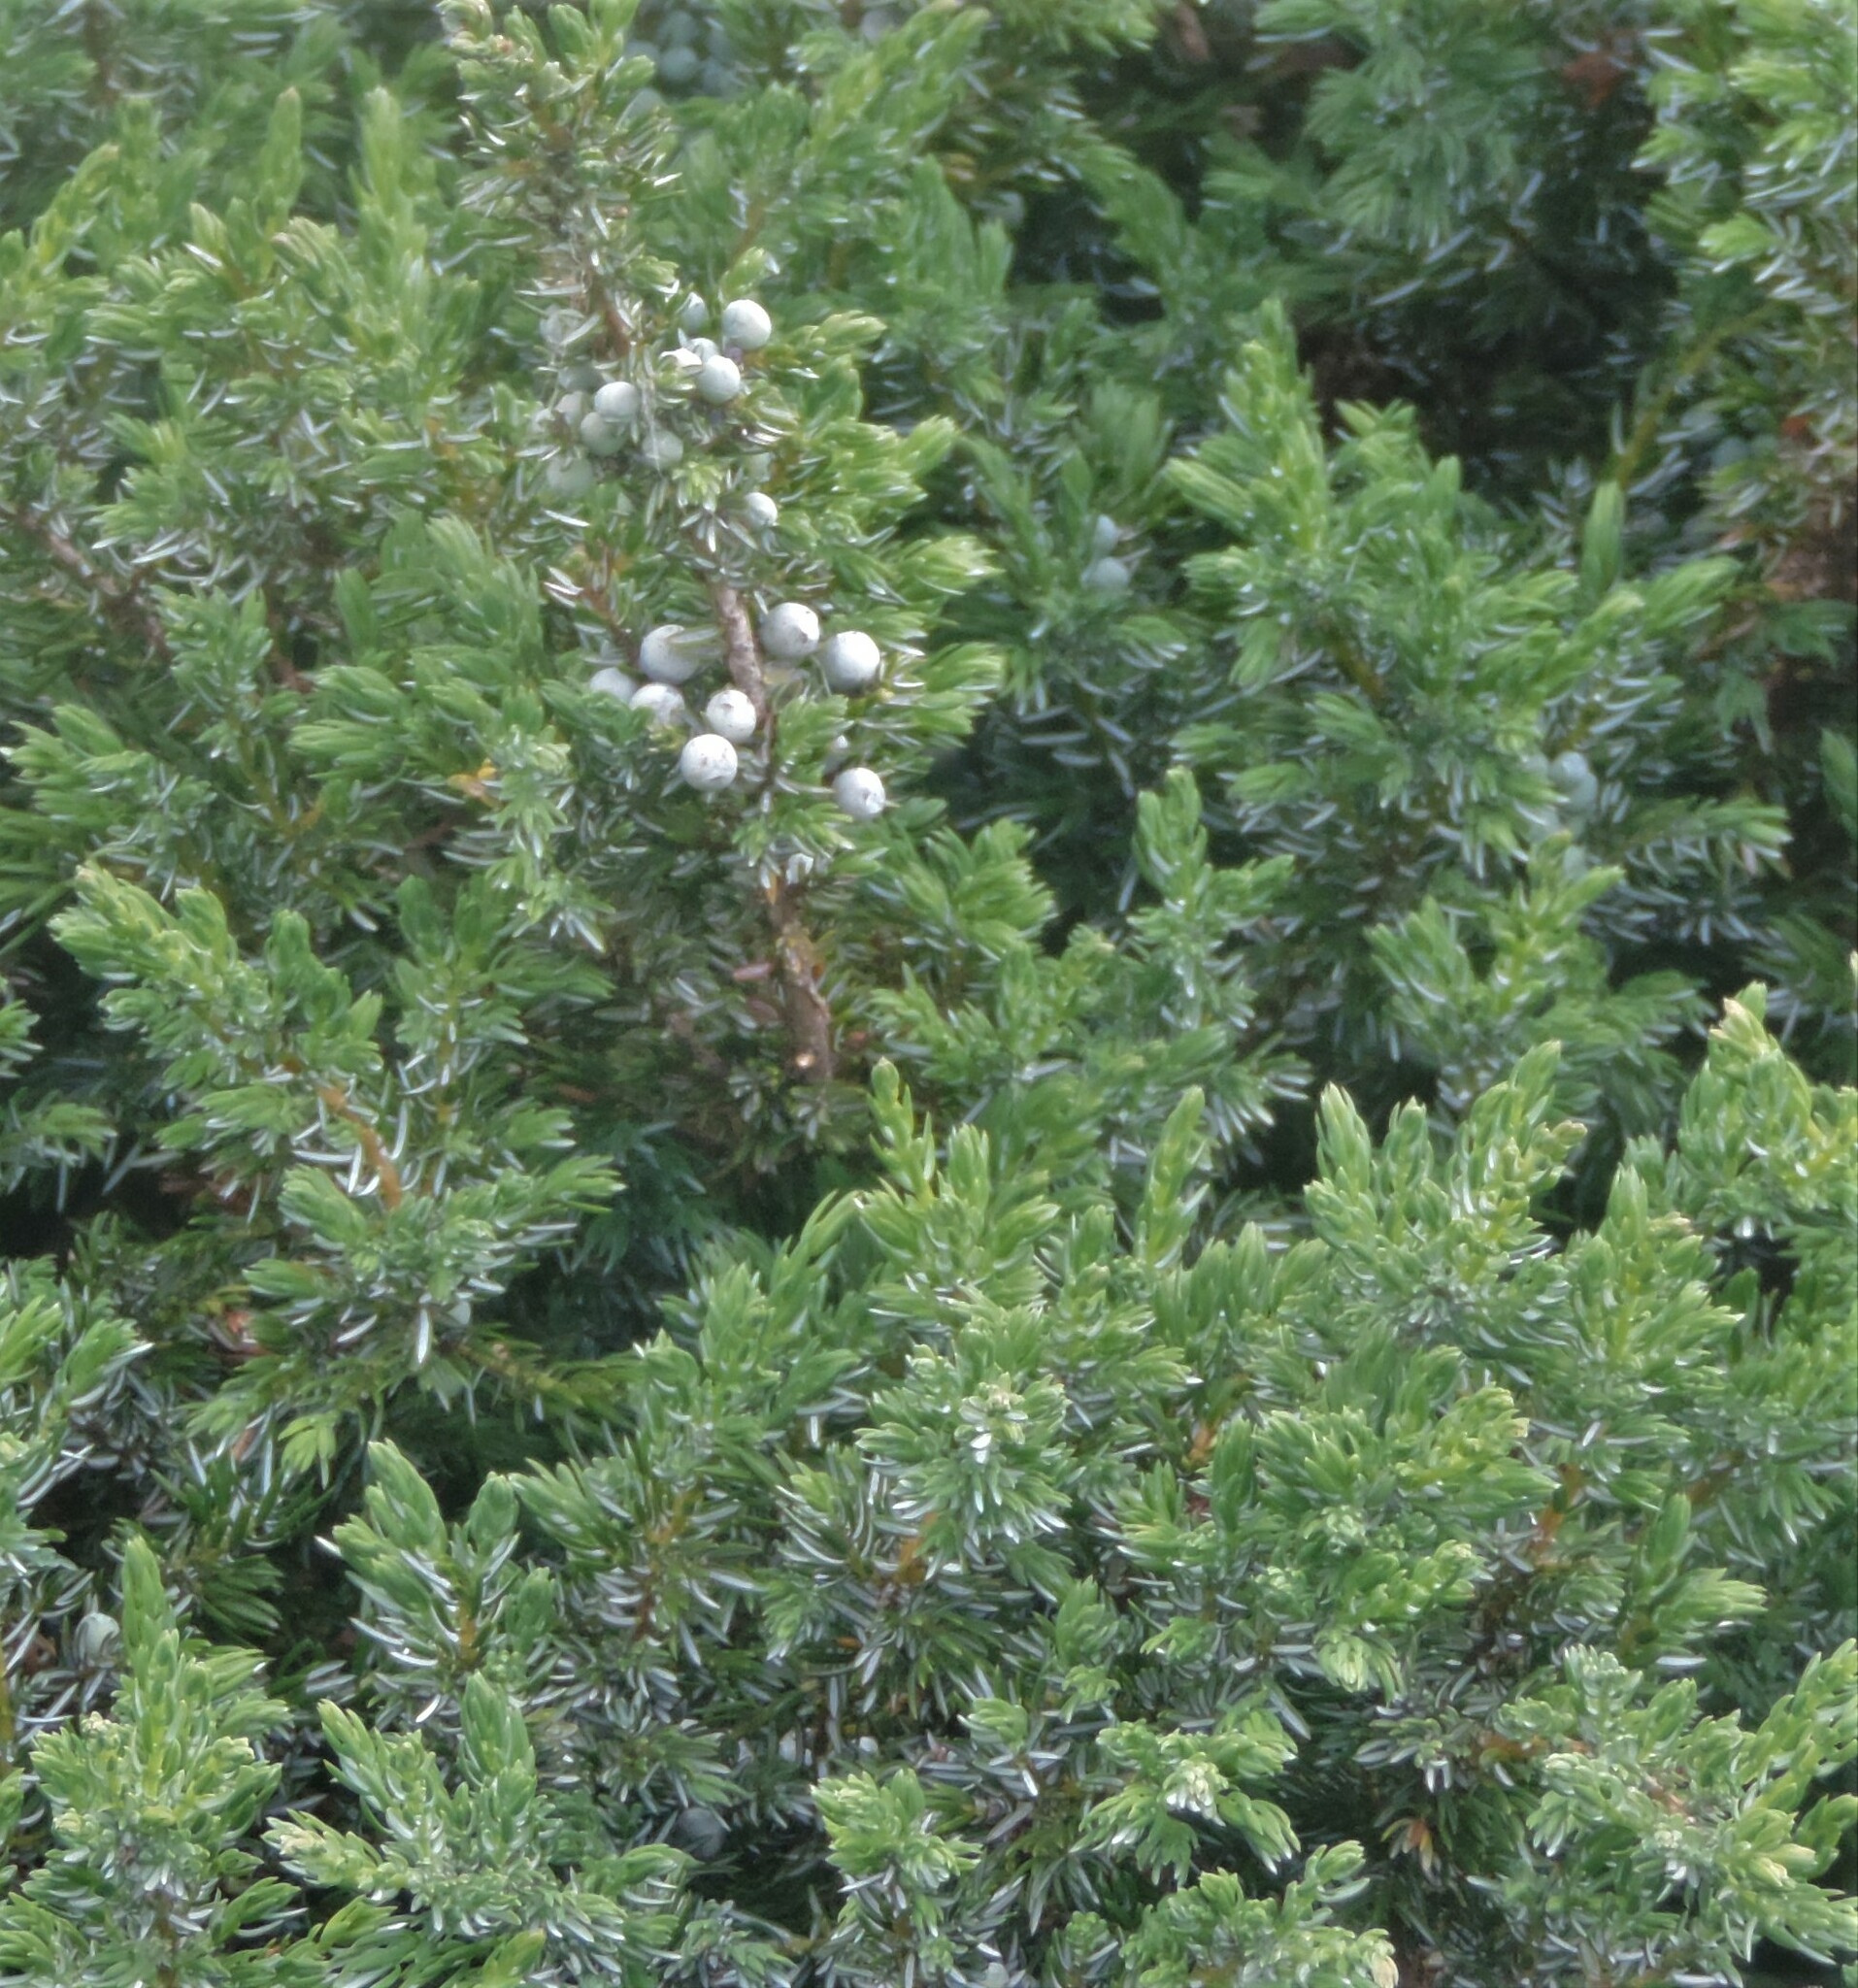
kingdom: Plantae
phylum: Tracheophyta
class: Pinopsida
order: Pinales
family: Cupressaceae
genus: Juniperus
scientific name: Juniperus communis
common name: Common juniper
